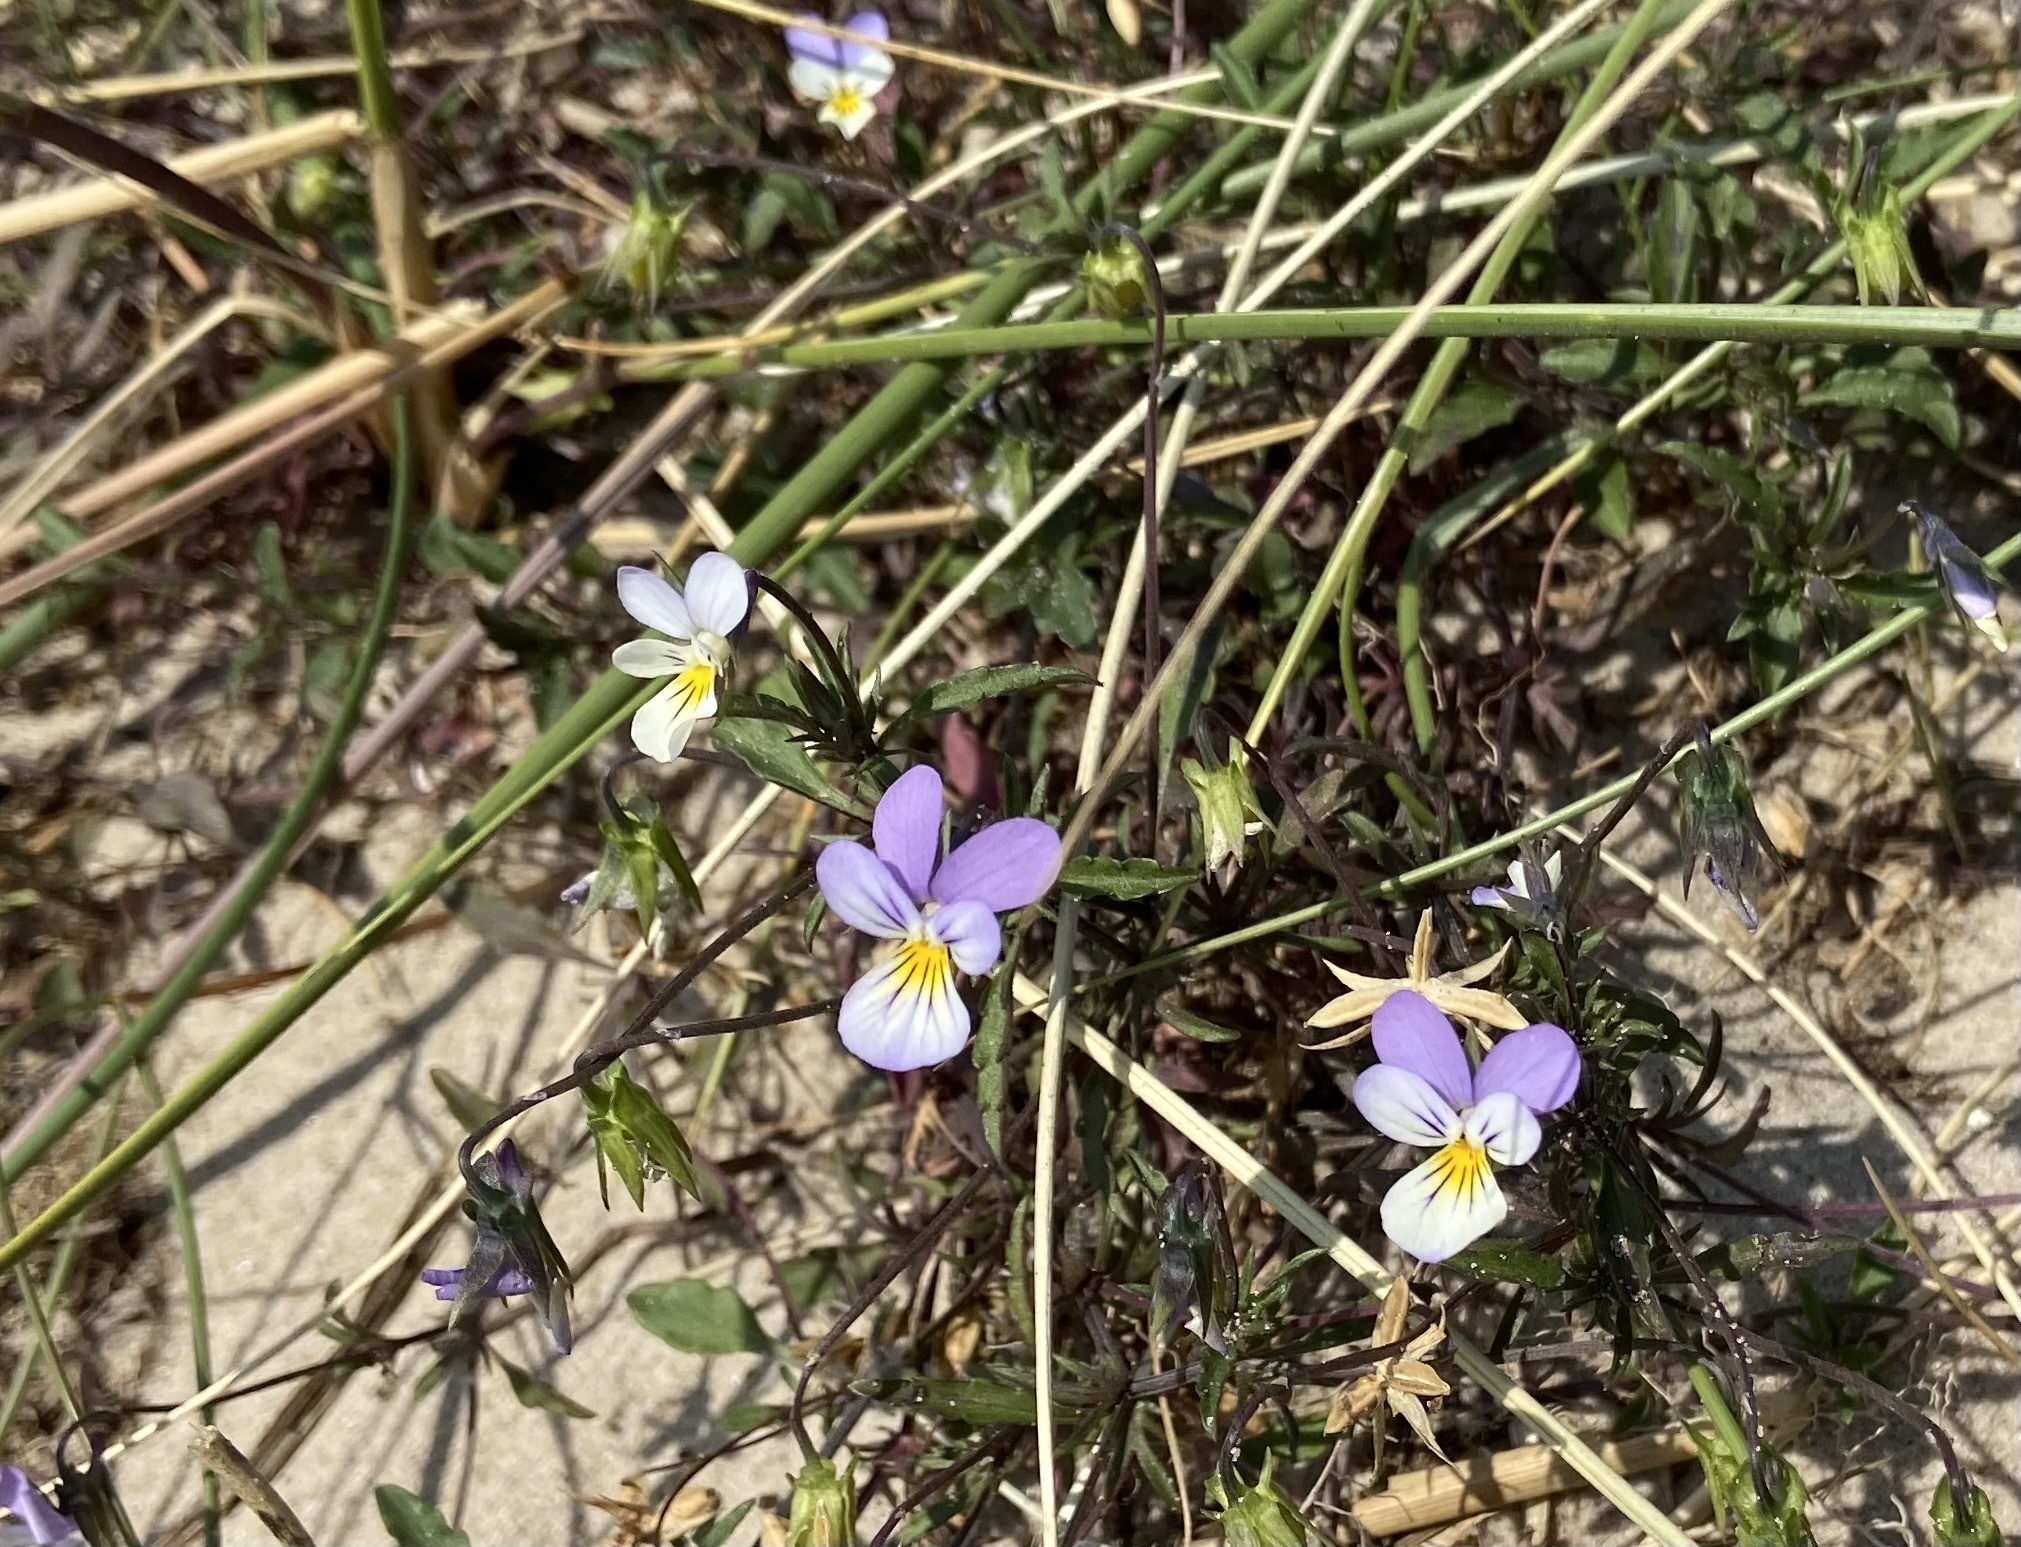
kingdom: Plantae
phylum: Tracheophyta
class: Magnoliopsida
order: Malpighiales
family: Violaceae
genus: Viola
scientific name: Viola tricolor
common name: Pansy
